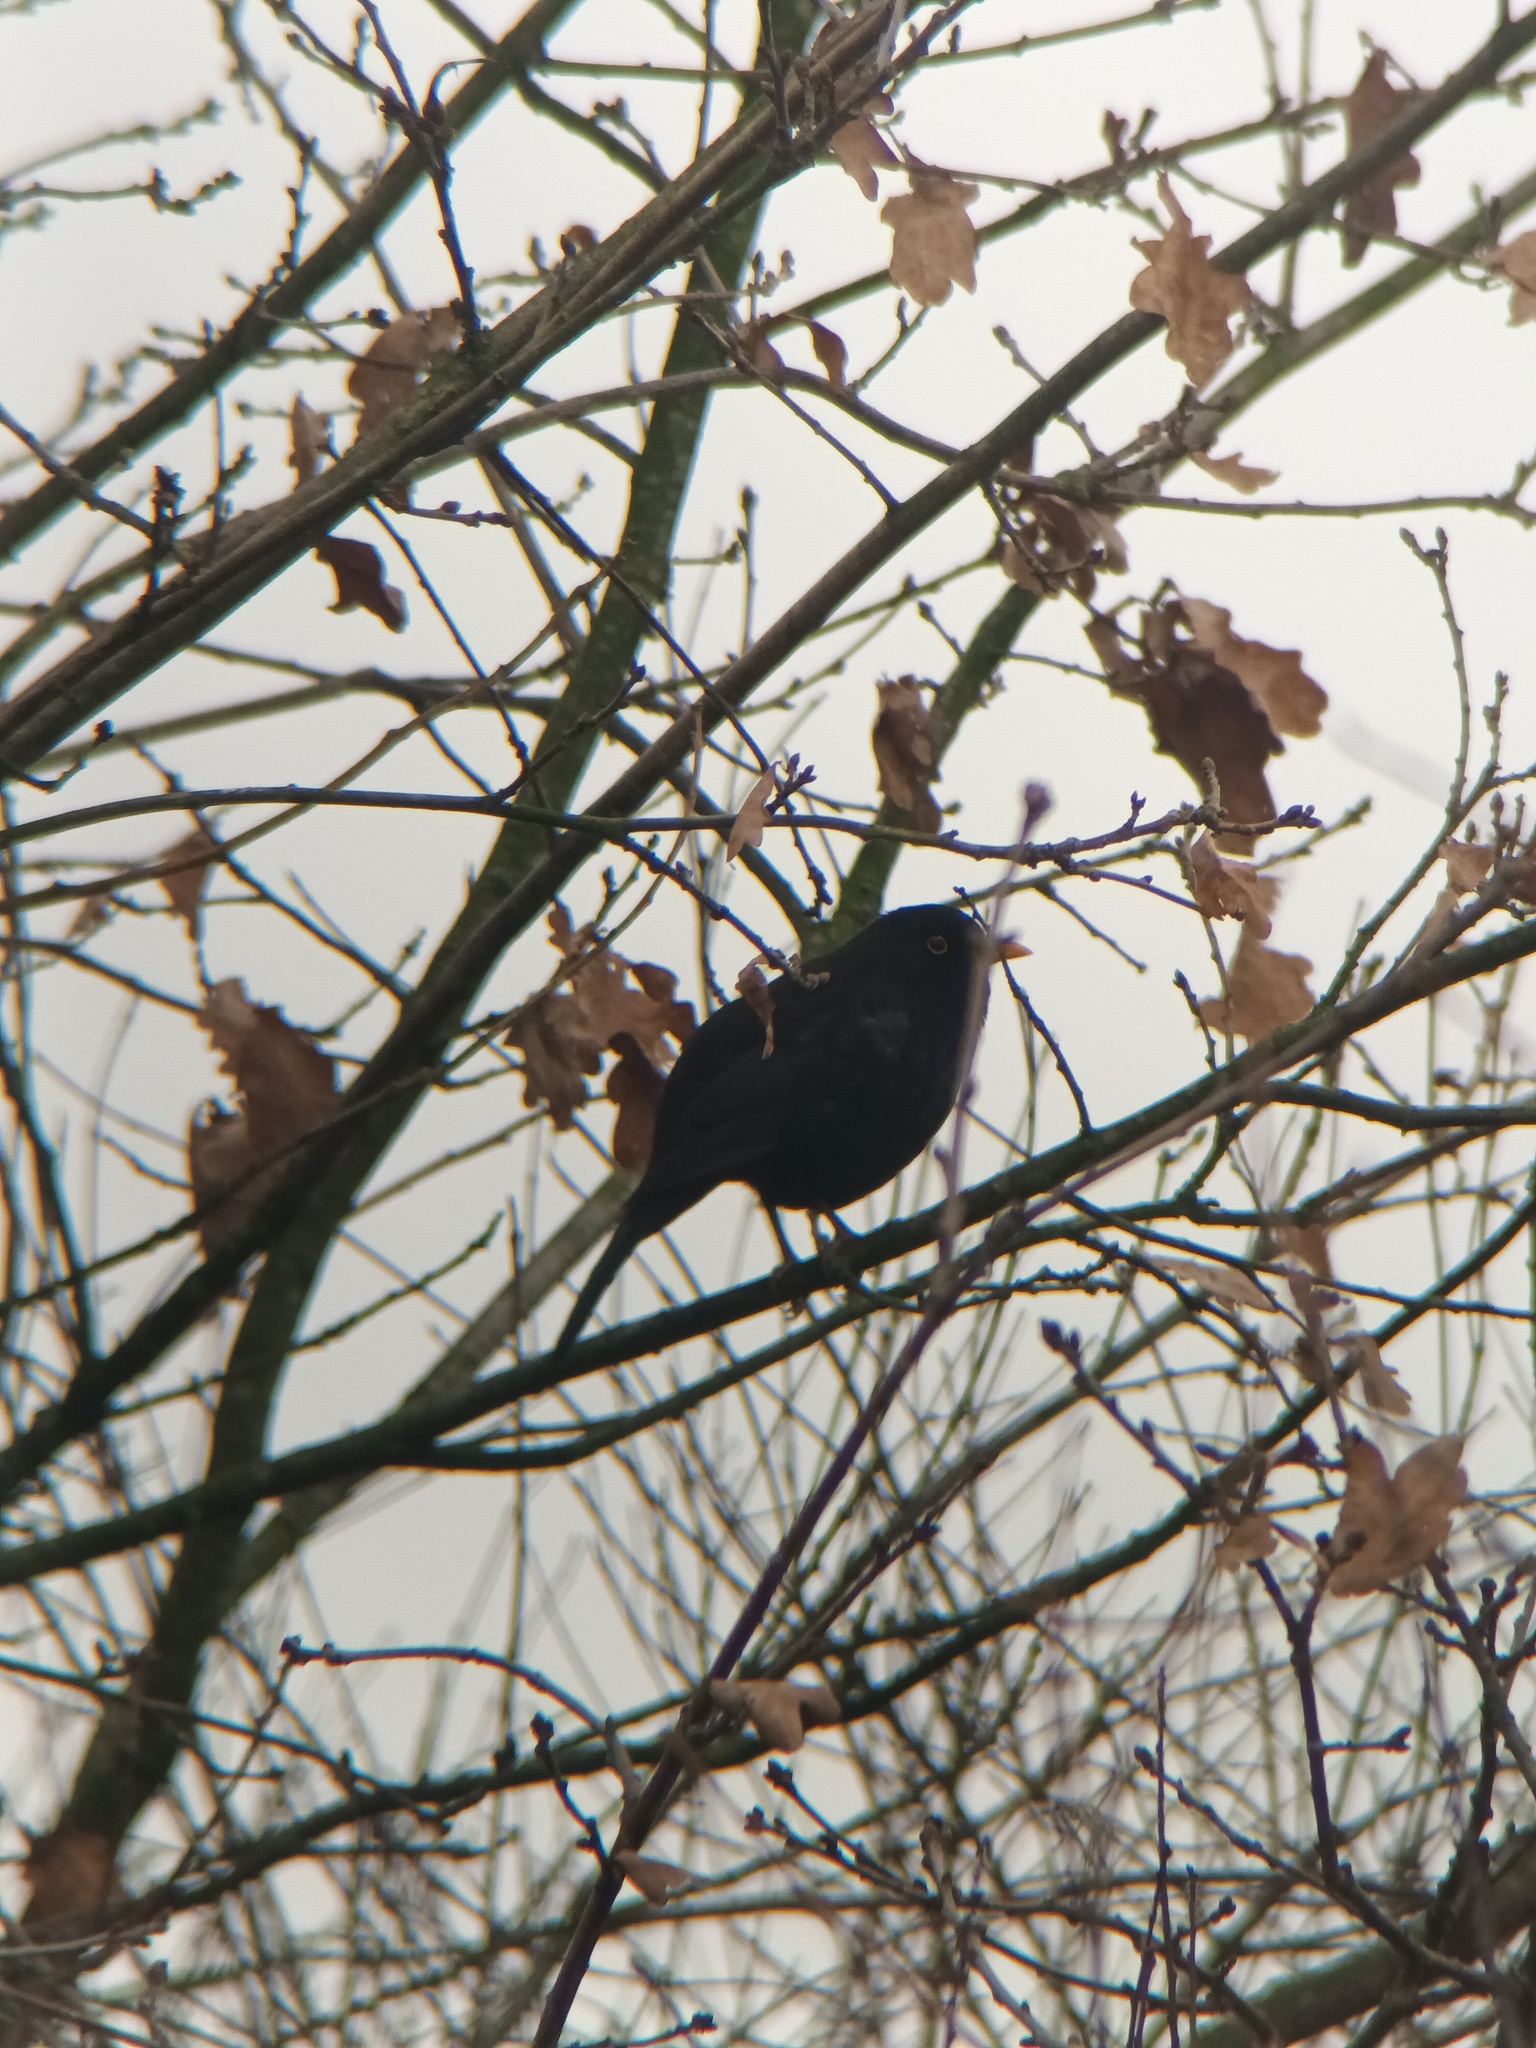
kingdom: Animalia
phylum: Chordata
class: Aves
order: Passeriformes
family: Turdidae
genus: Turdus
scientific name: Turdus merula
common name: Common blackbird
